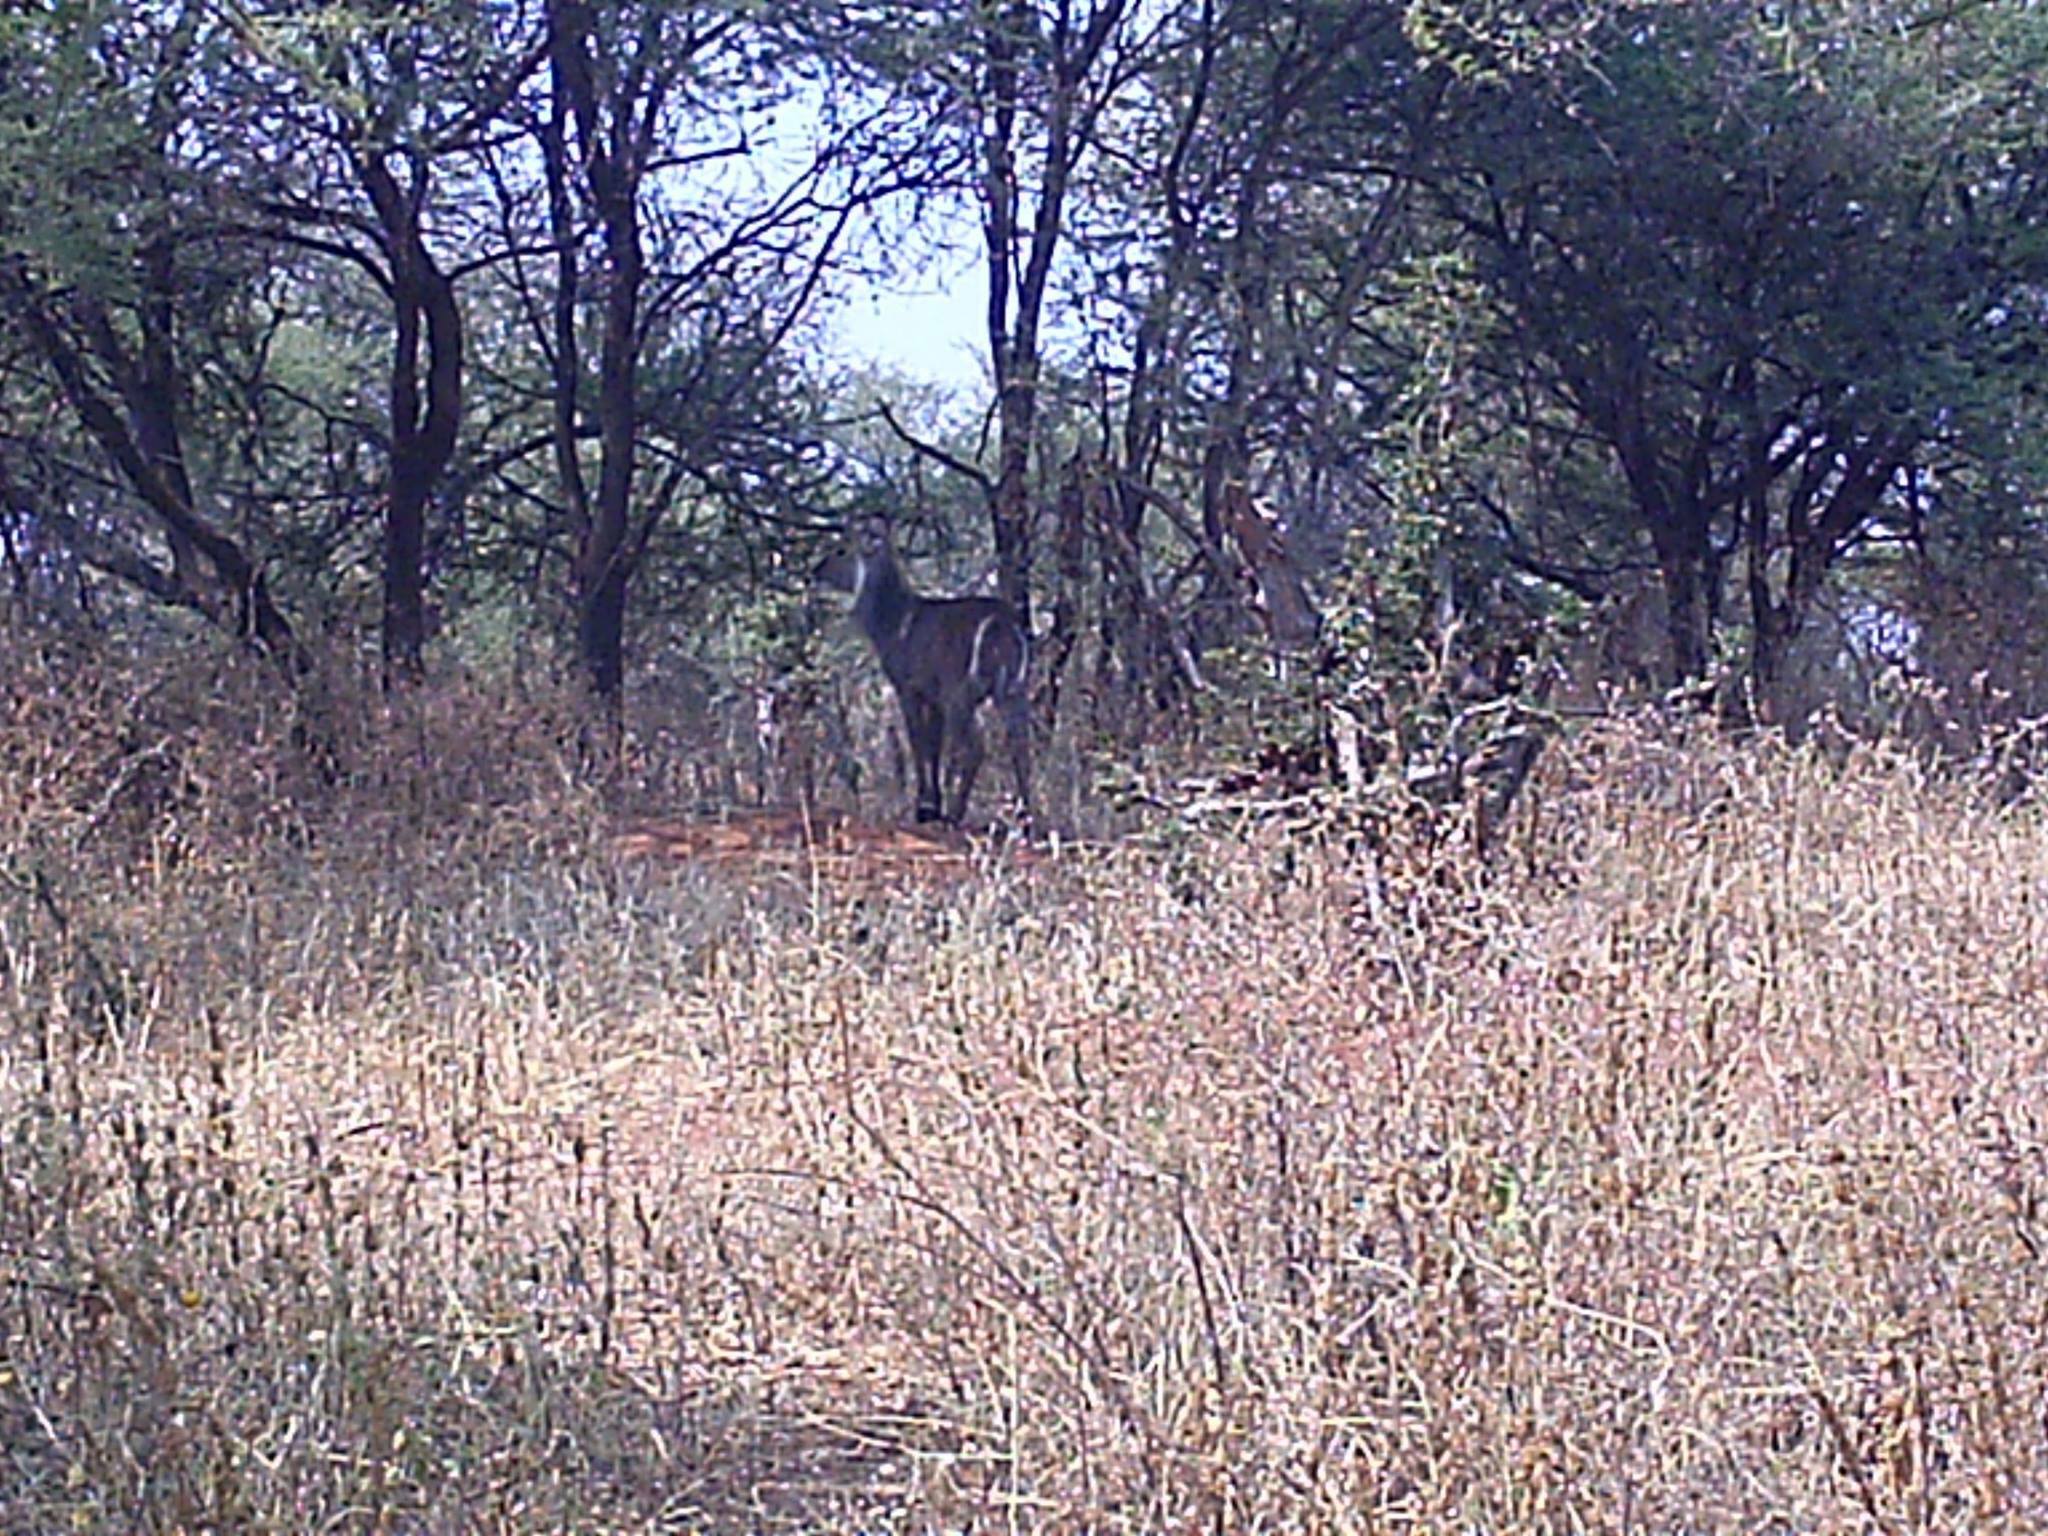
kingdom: Animalia
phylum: Chordata
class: Mammalia
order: Artiodactyla
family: Bovidae
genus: Kobus
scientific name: Kobus ellipsiprymnus
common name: Waterbuck
